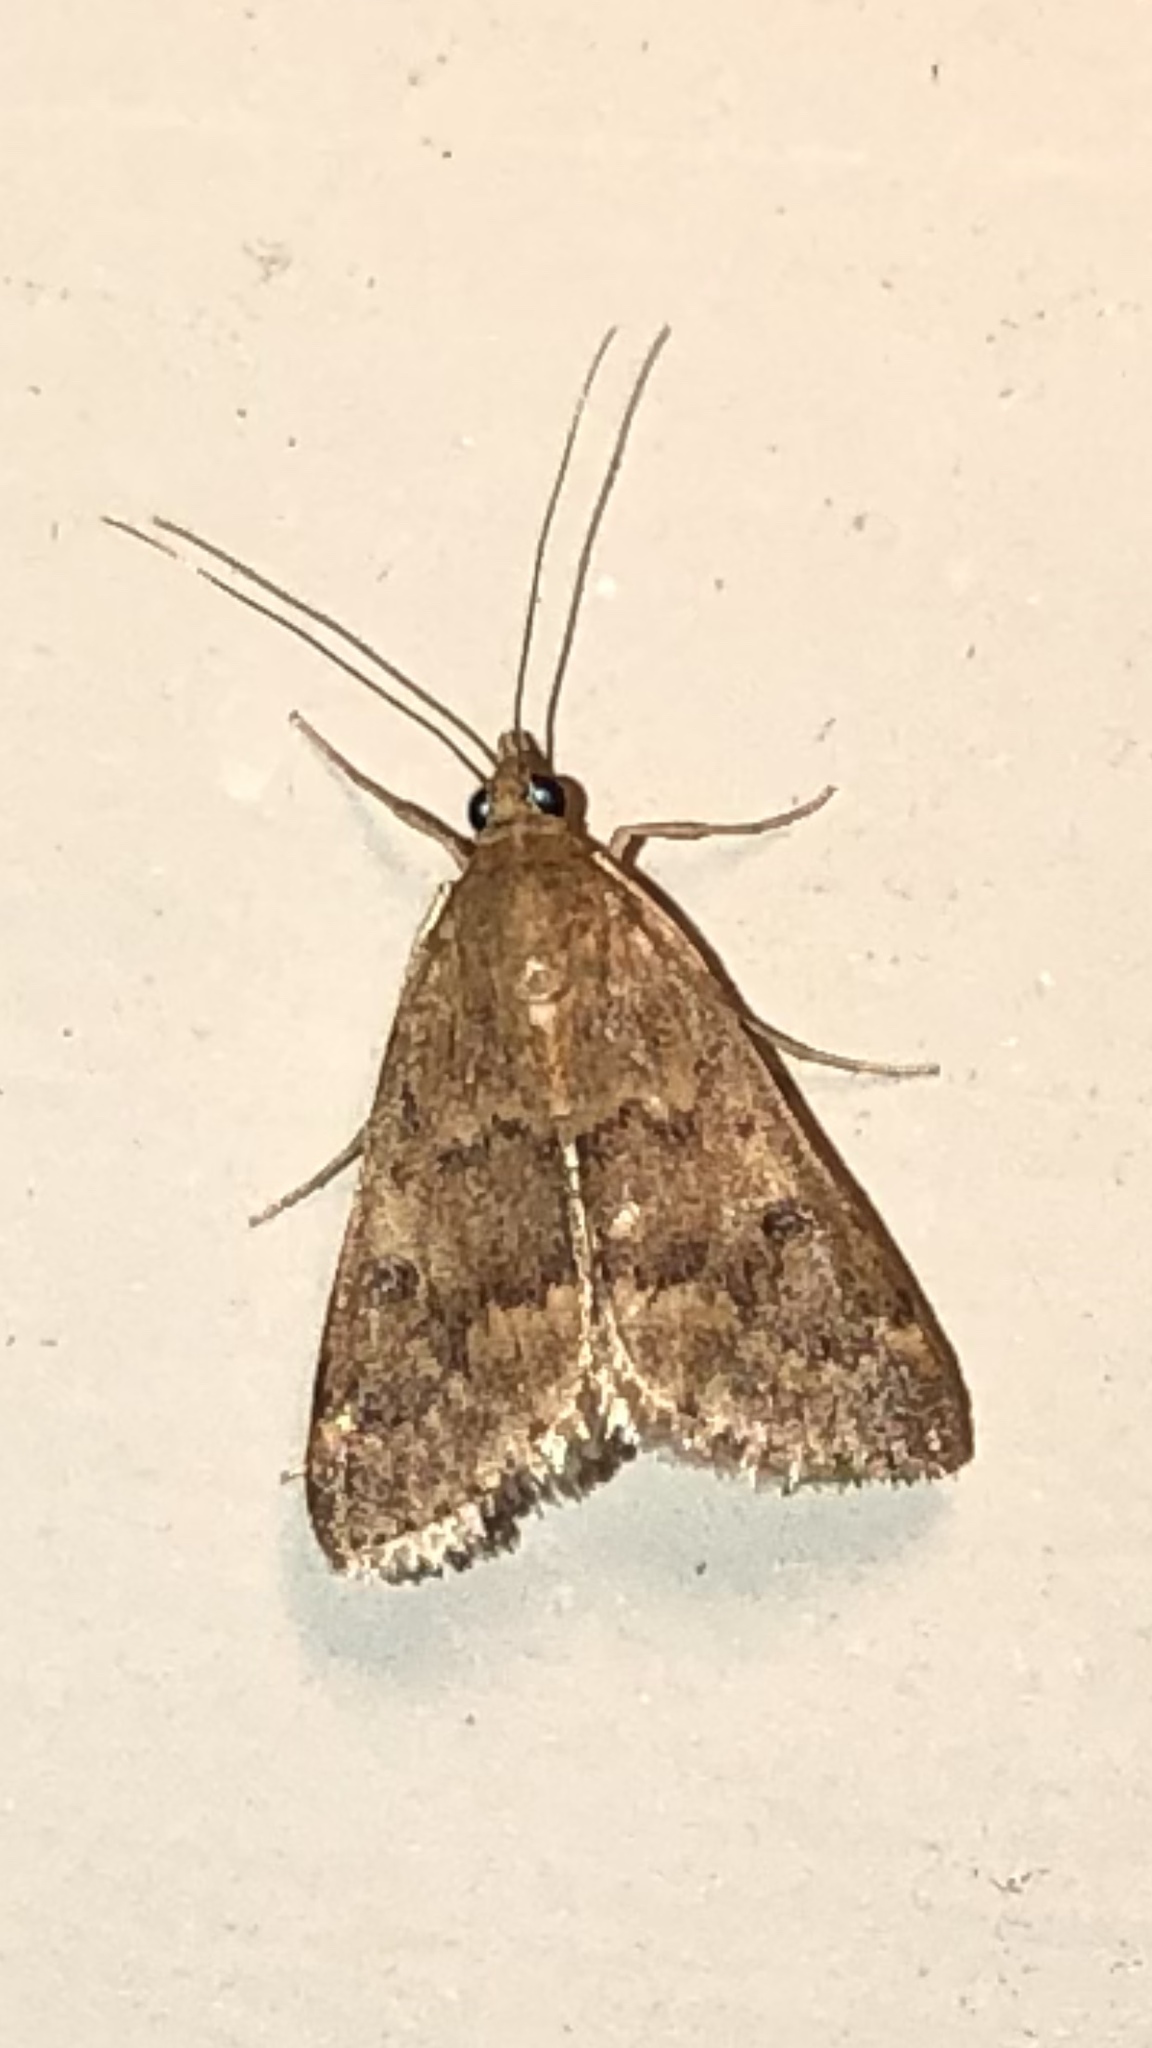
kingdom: Animalia
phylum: Arthropoda
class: Insecta
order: Lepidoptera
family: Crambidae
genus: Achyra
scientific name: Achyra rantalis
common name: Garden webworm
